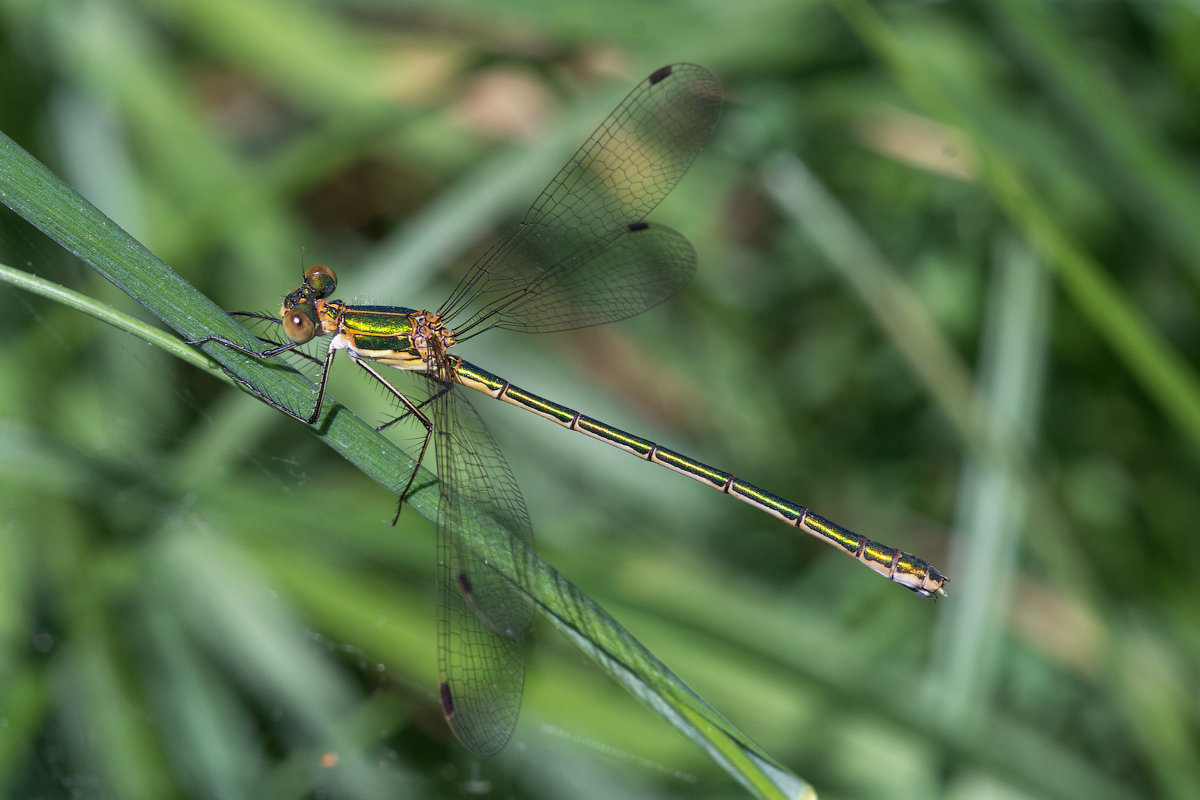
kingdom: Animalia
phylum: Arthropoda
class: Insecta
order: Odonata
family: Lestidae
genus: Lestes
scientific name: Lestes sponsa
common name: Common spreadwing
